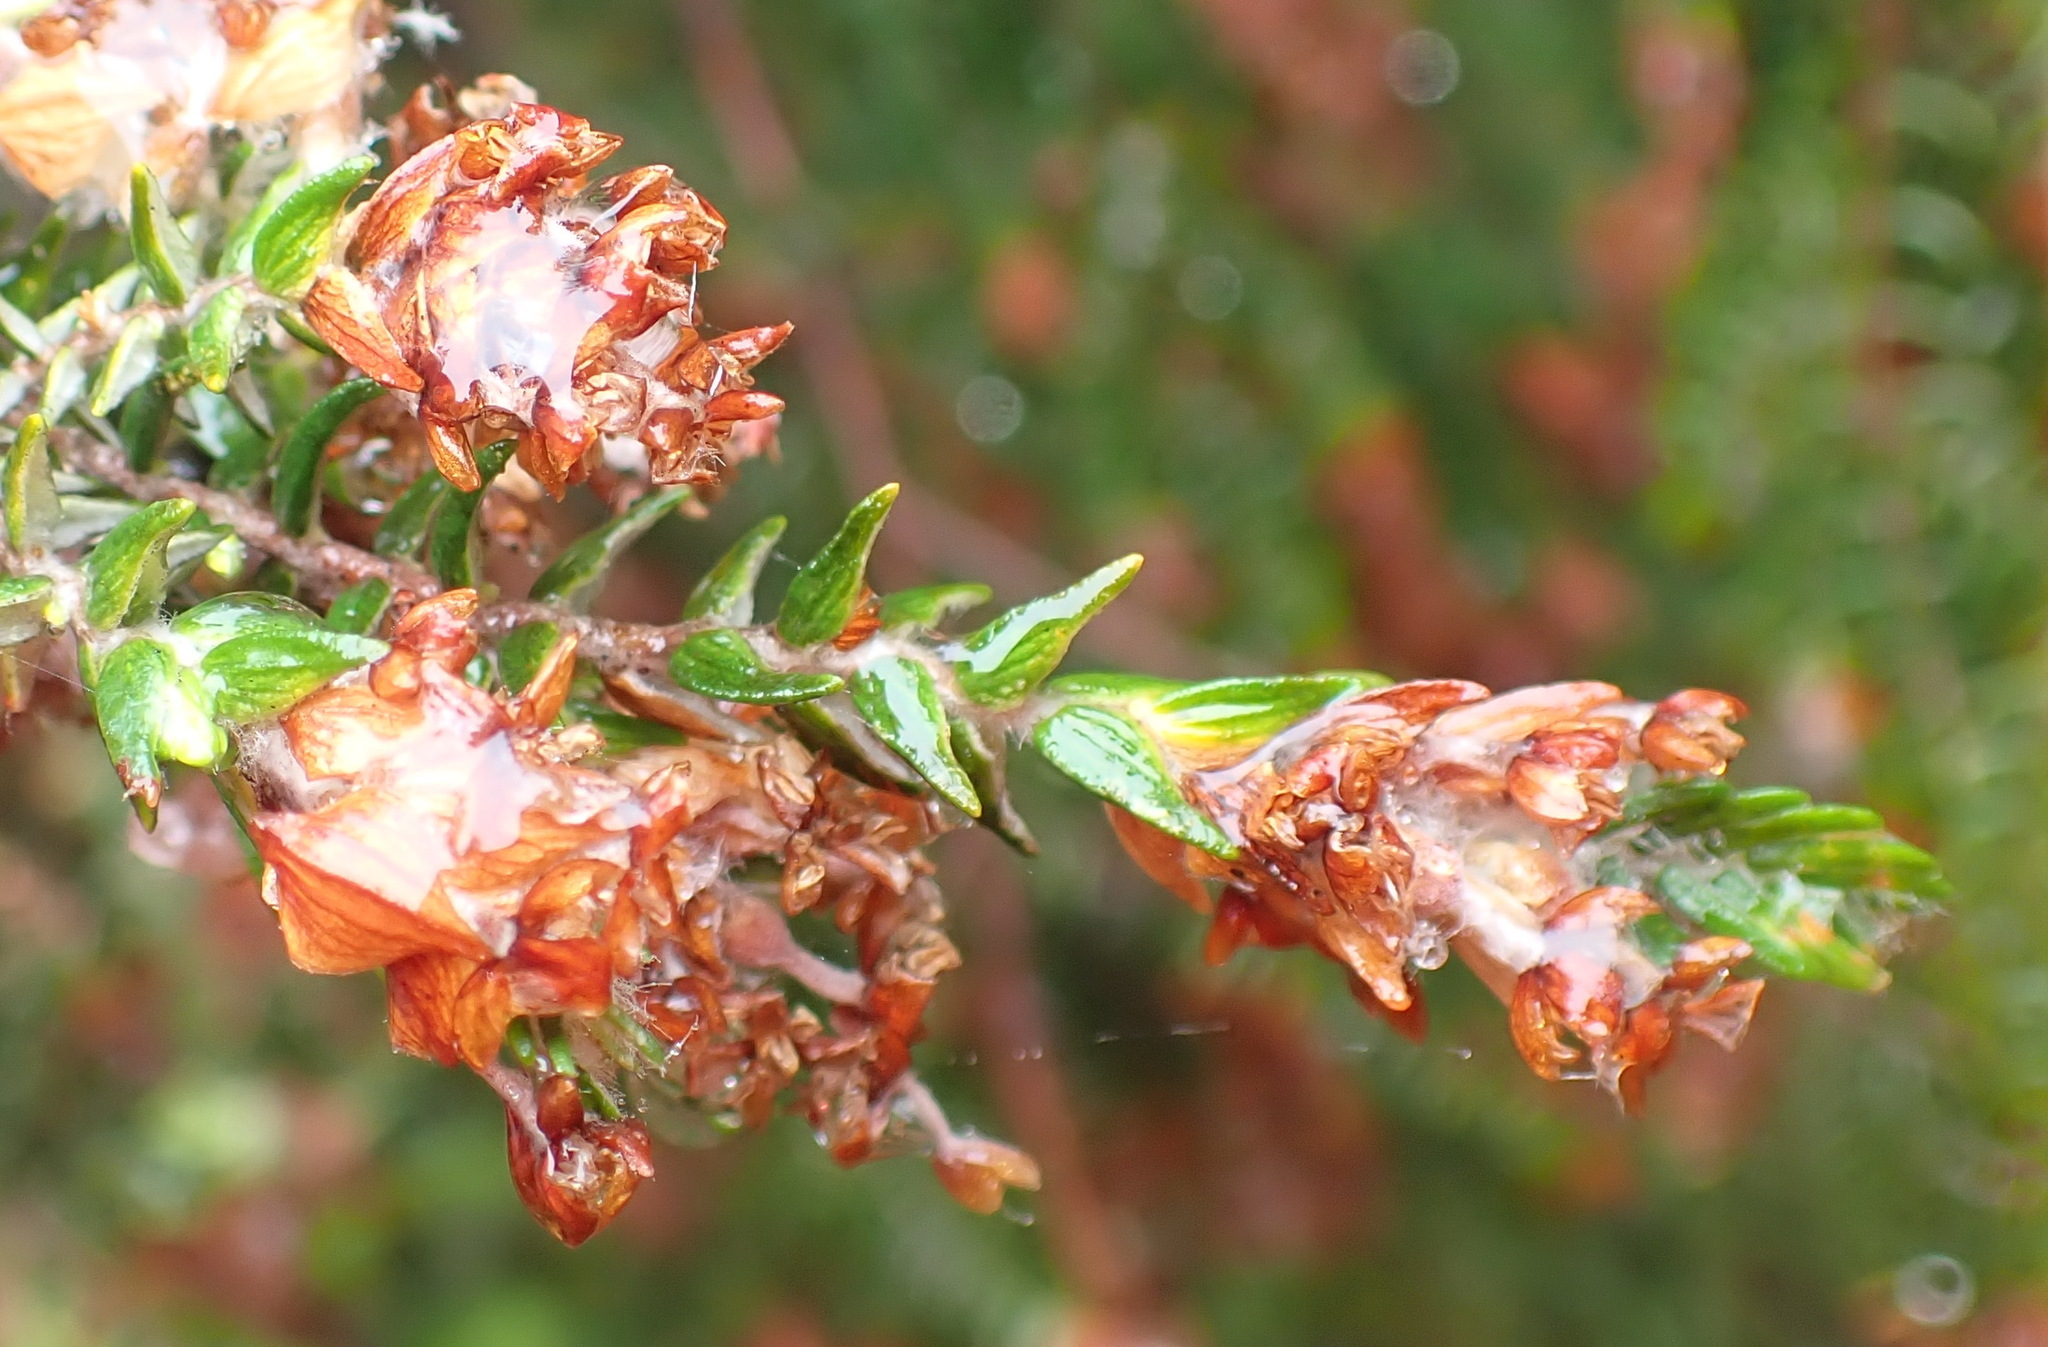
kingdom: Plantae
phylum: Tracheophyta
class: Magnoliopsida
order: Malvales
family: Thymelaeaceae
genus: Passerina
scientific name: Passerina falcifolia
